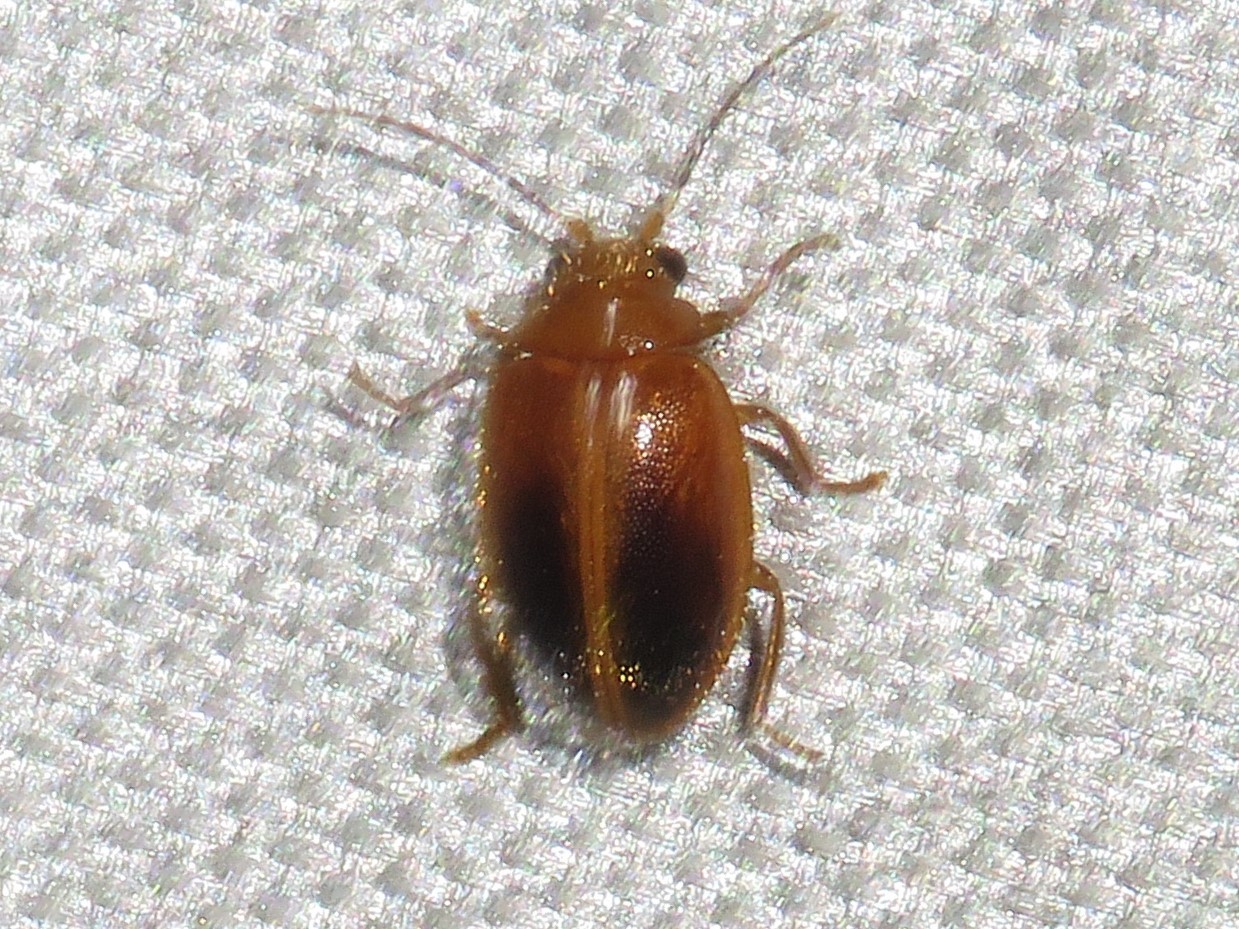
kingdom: Animalia
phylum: Arthropoda
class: Insecta
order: Coleoptera
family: Scirtidae
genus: Prionocyphon
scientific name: Prionocyphon limbatus
